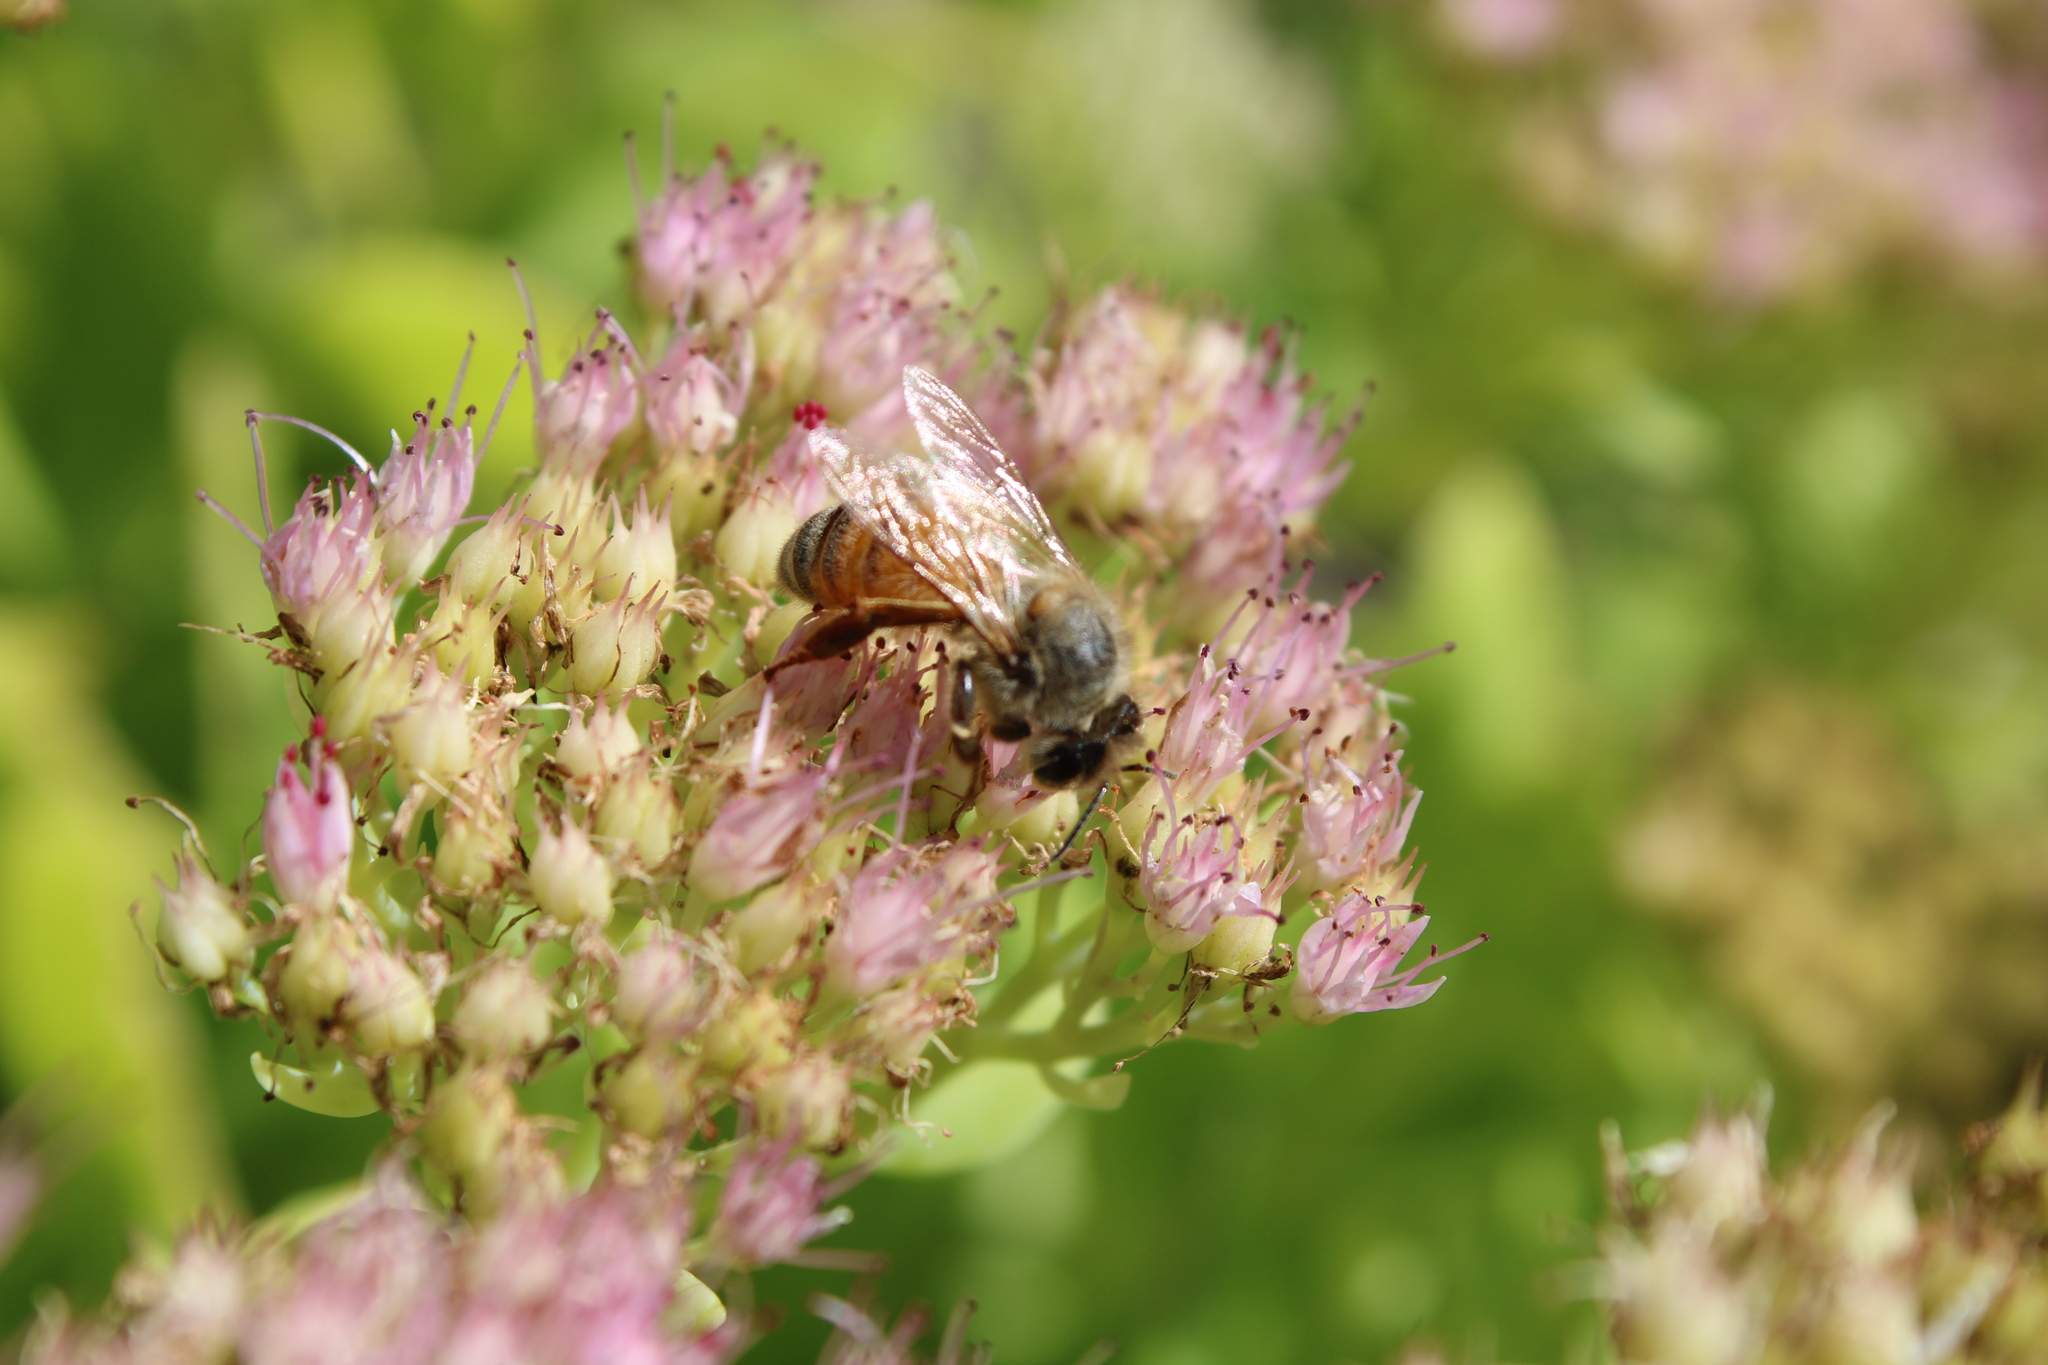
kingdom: Animalia
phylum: Arthropoda
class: Insecta
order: Hymenoptera
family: Apidae
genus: Apis
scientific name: Apis mellifera
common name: Honey bee
